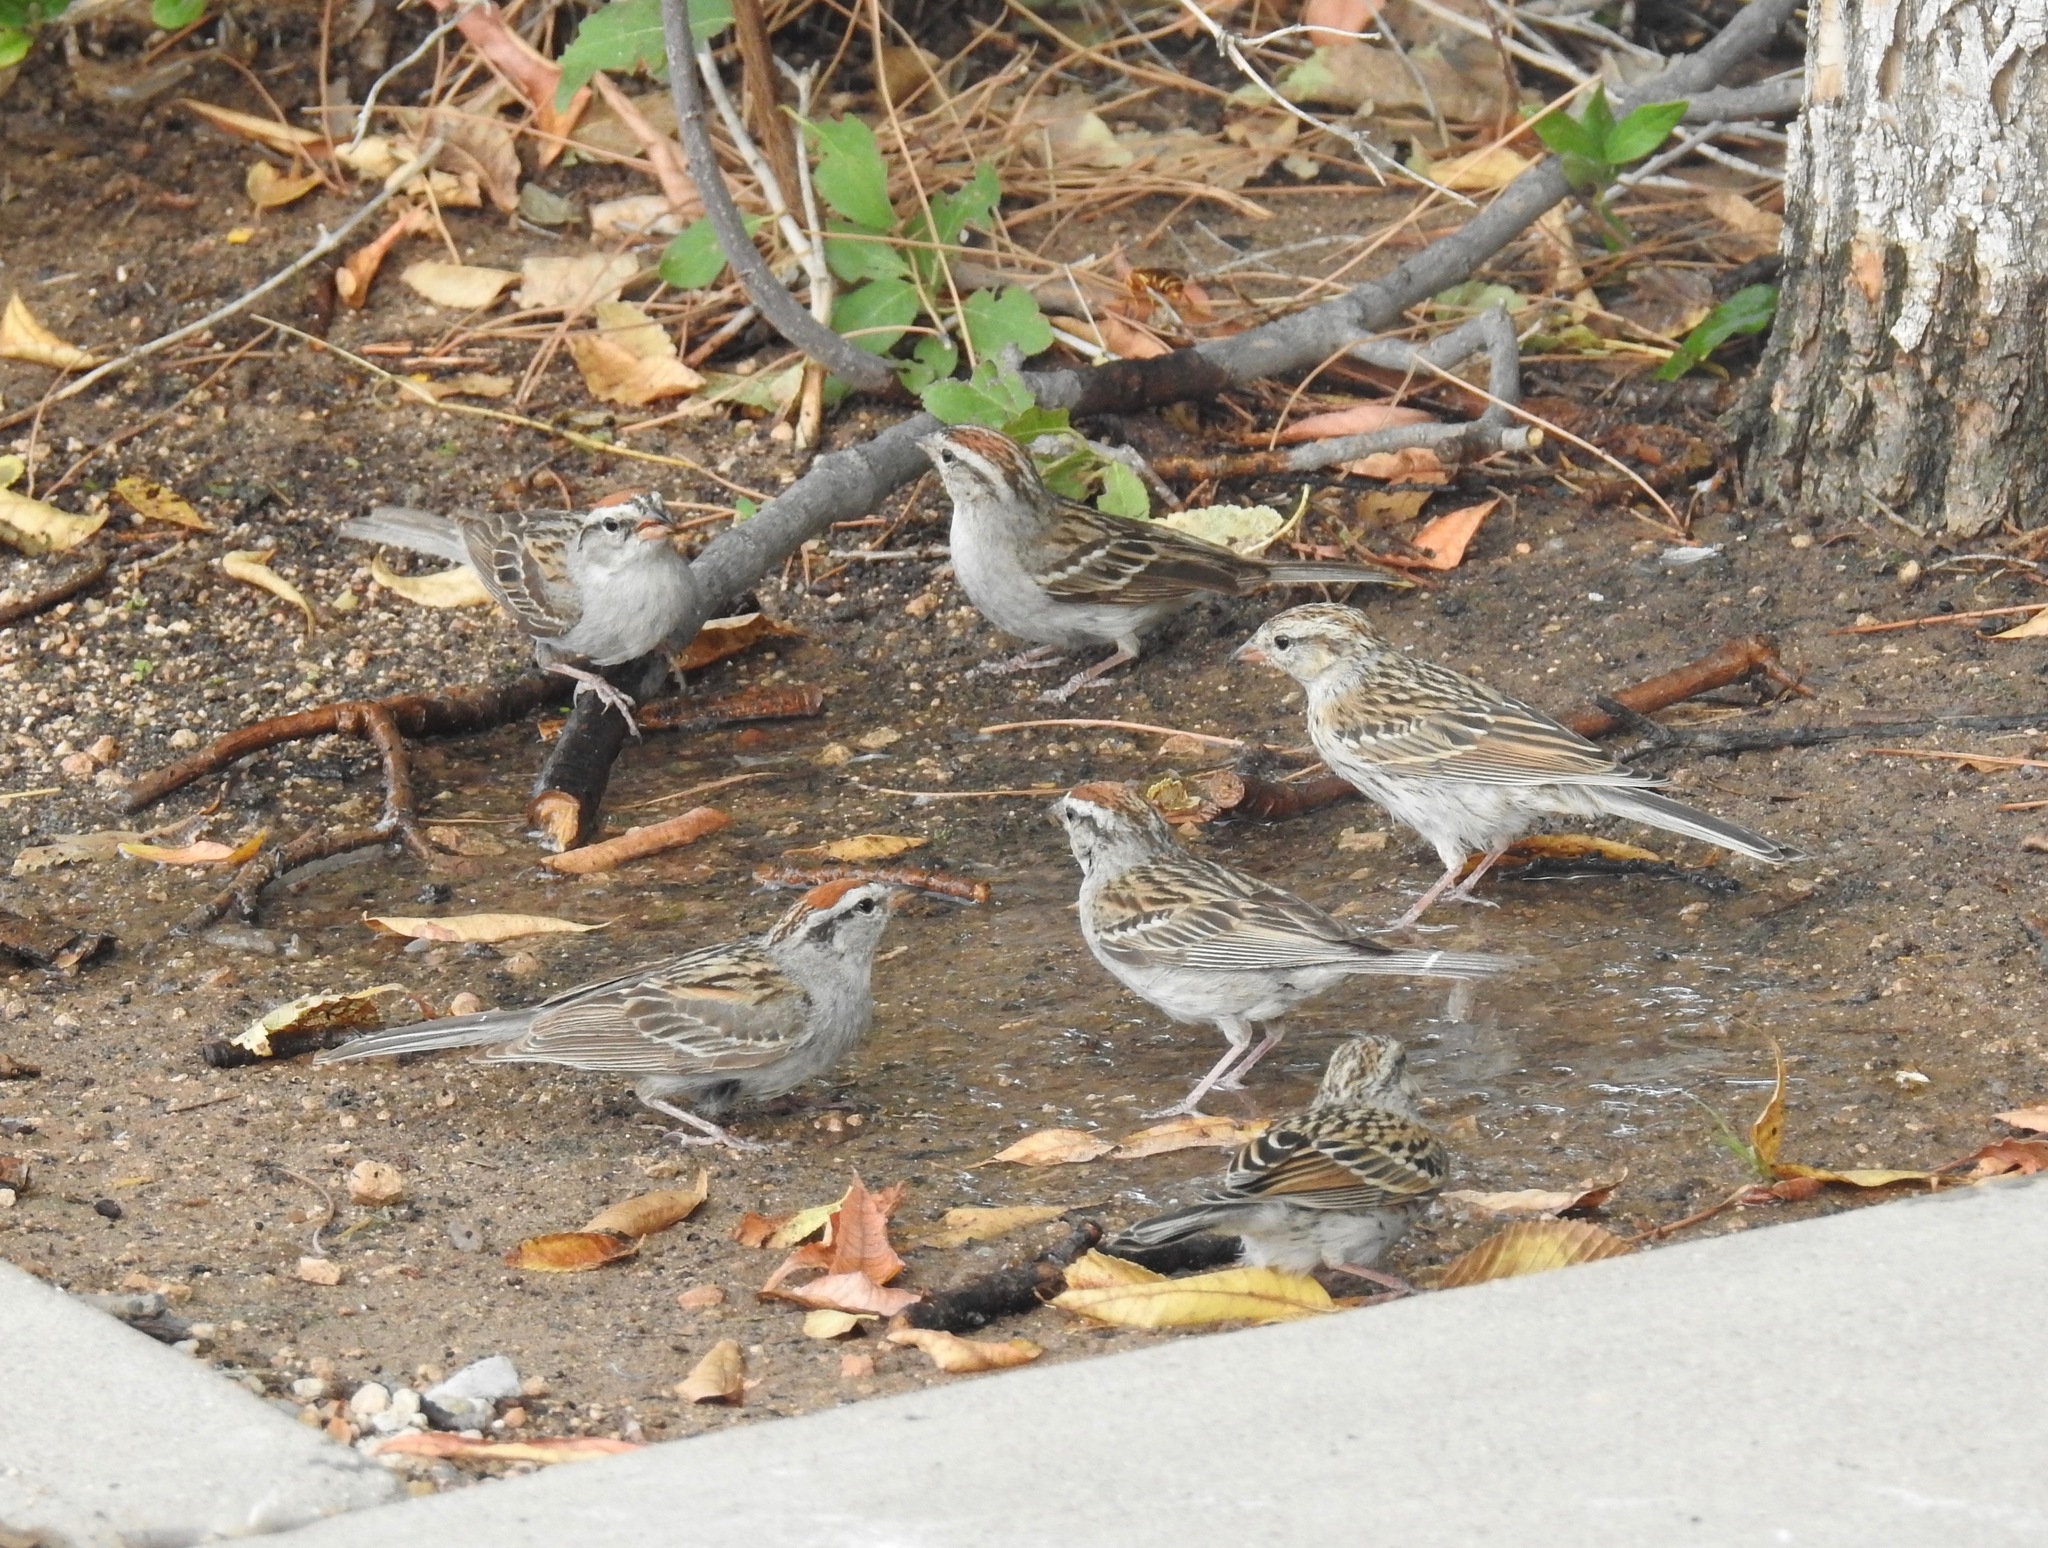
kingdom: Animalia
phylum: Chordata
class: Aves
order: Passeriformes
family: Passerellidae
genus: Spizella
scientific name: Spizella passerina
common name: Chipping sparrow
